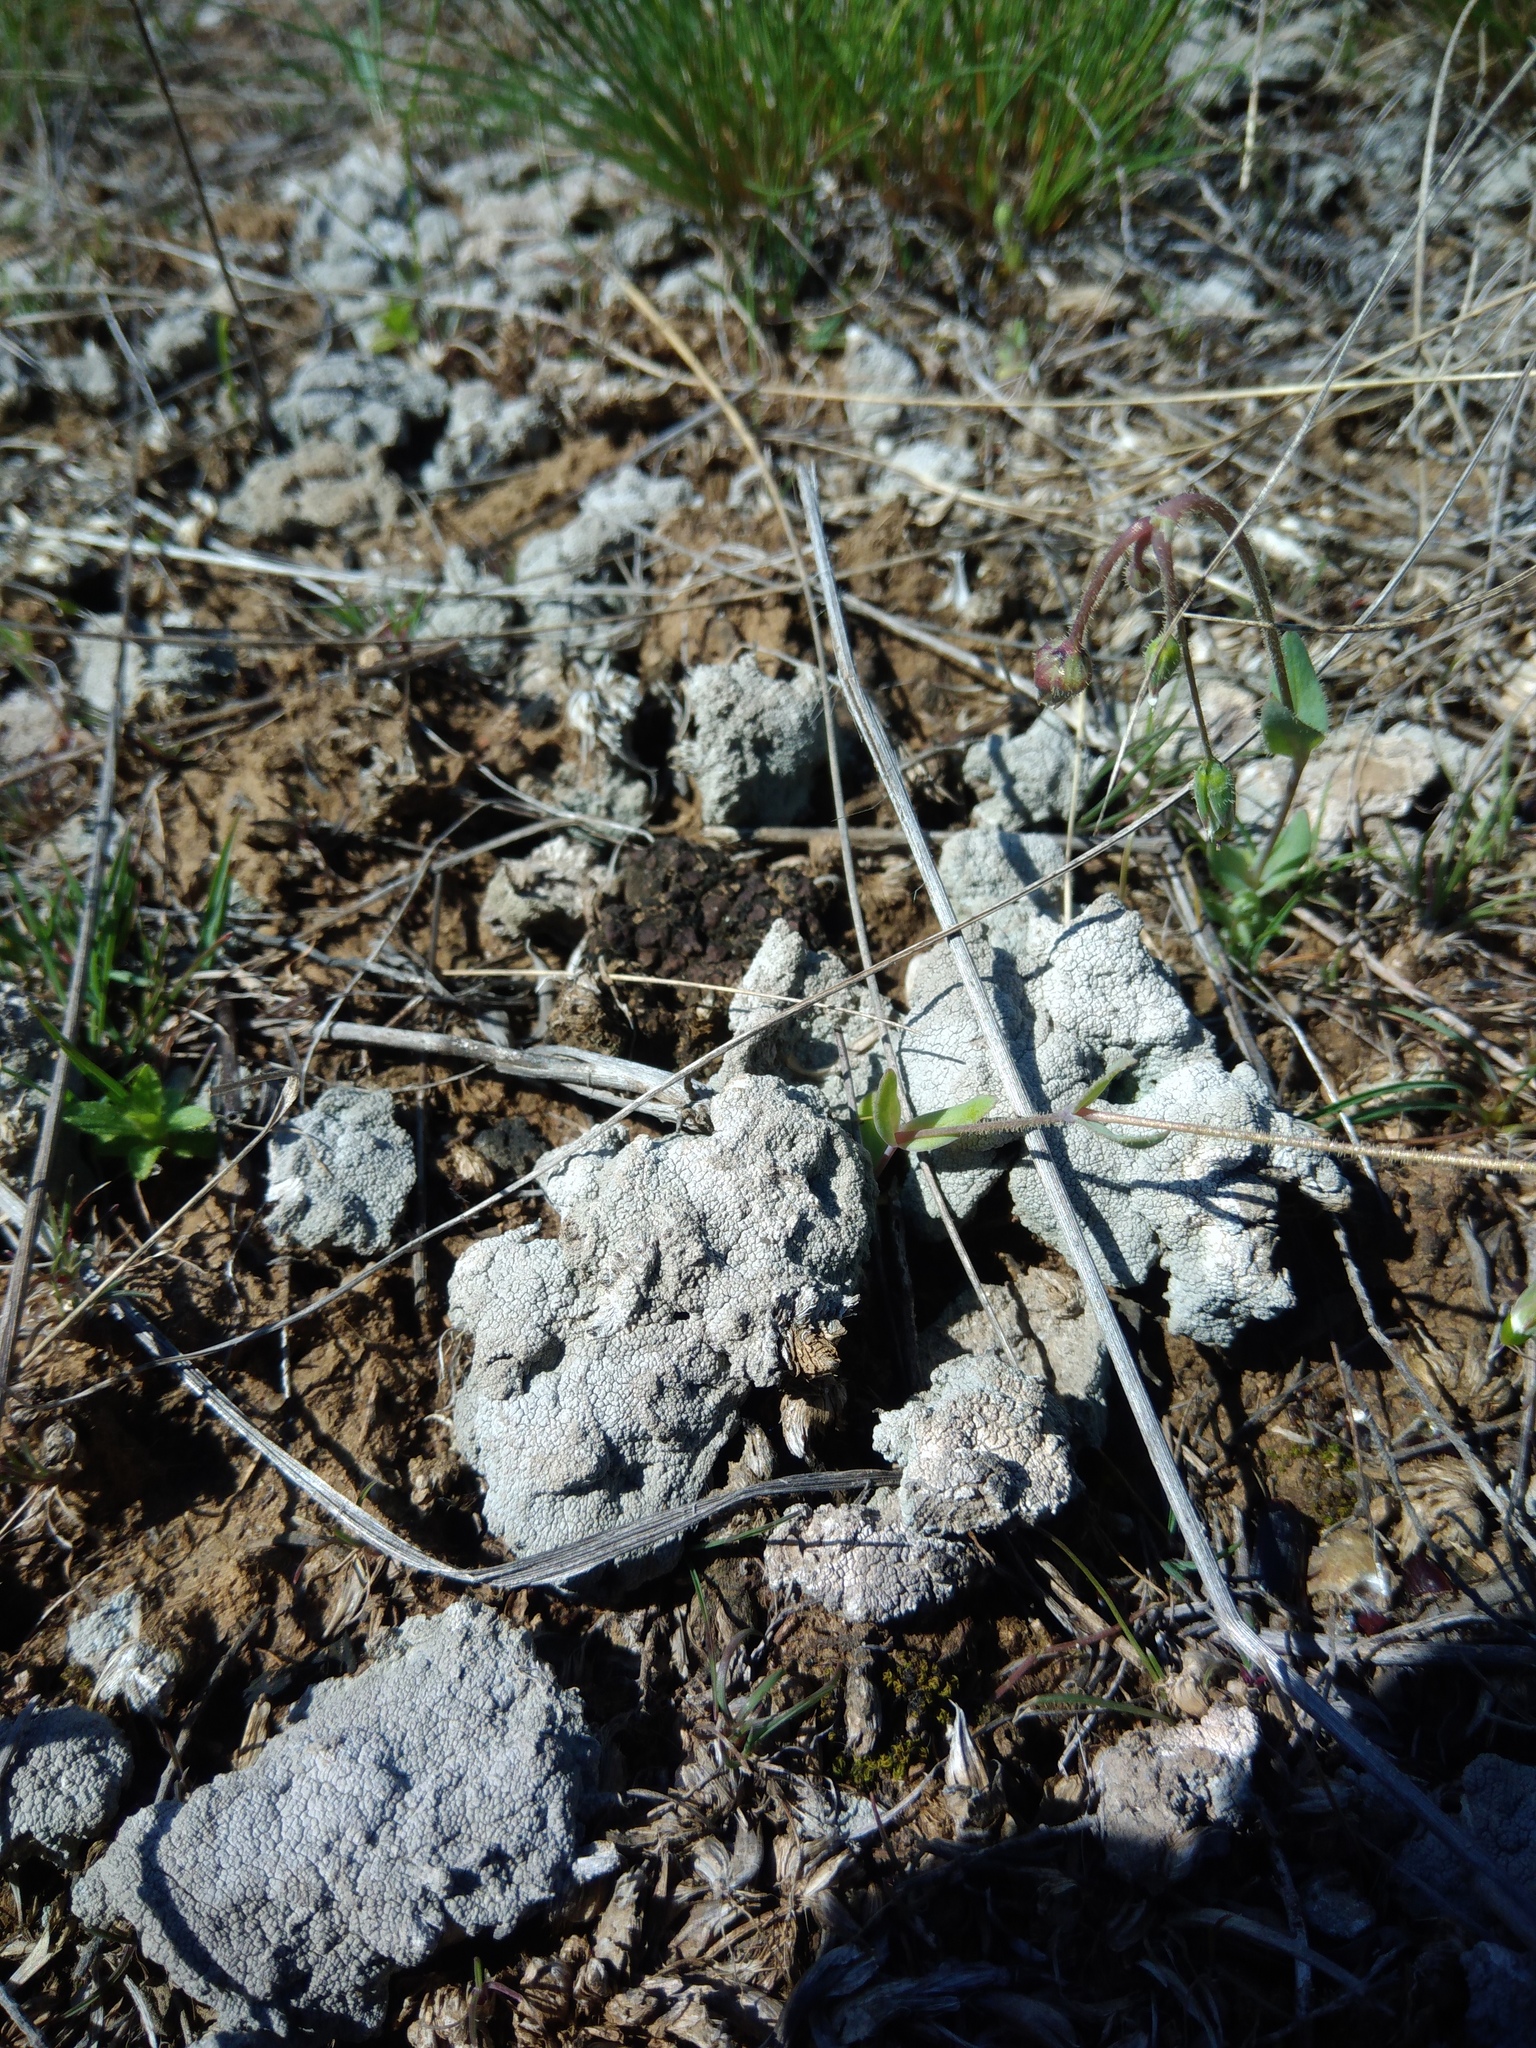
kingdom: Fungi
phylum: Ascomycota
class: Lecanoromycetes
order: Ostropales
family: Graphidaceae
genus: Diploschistes
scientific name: Diploschistes diacapsis
